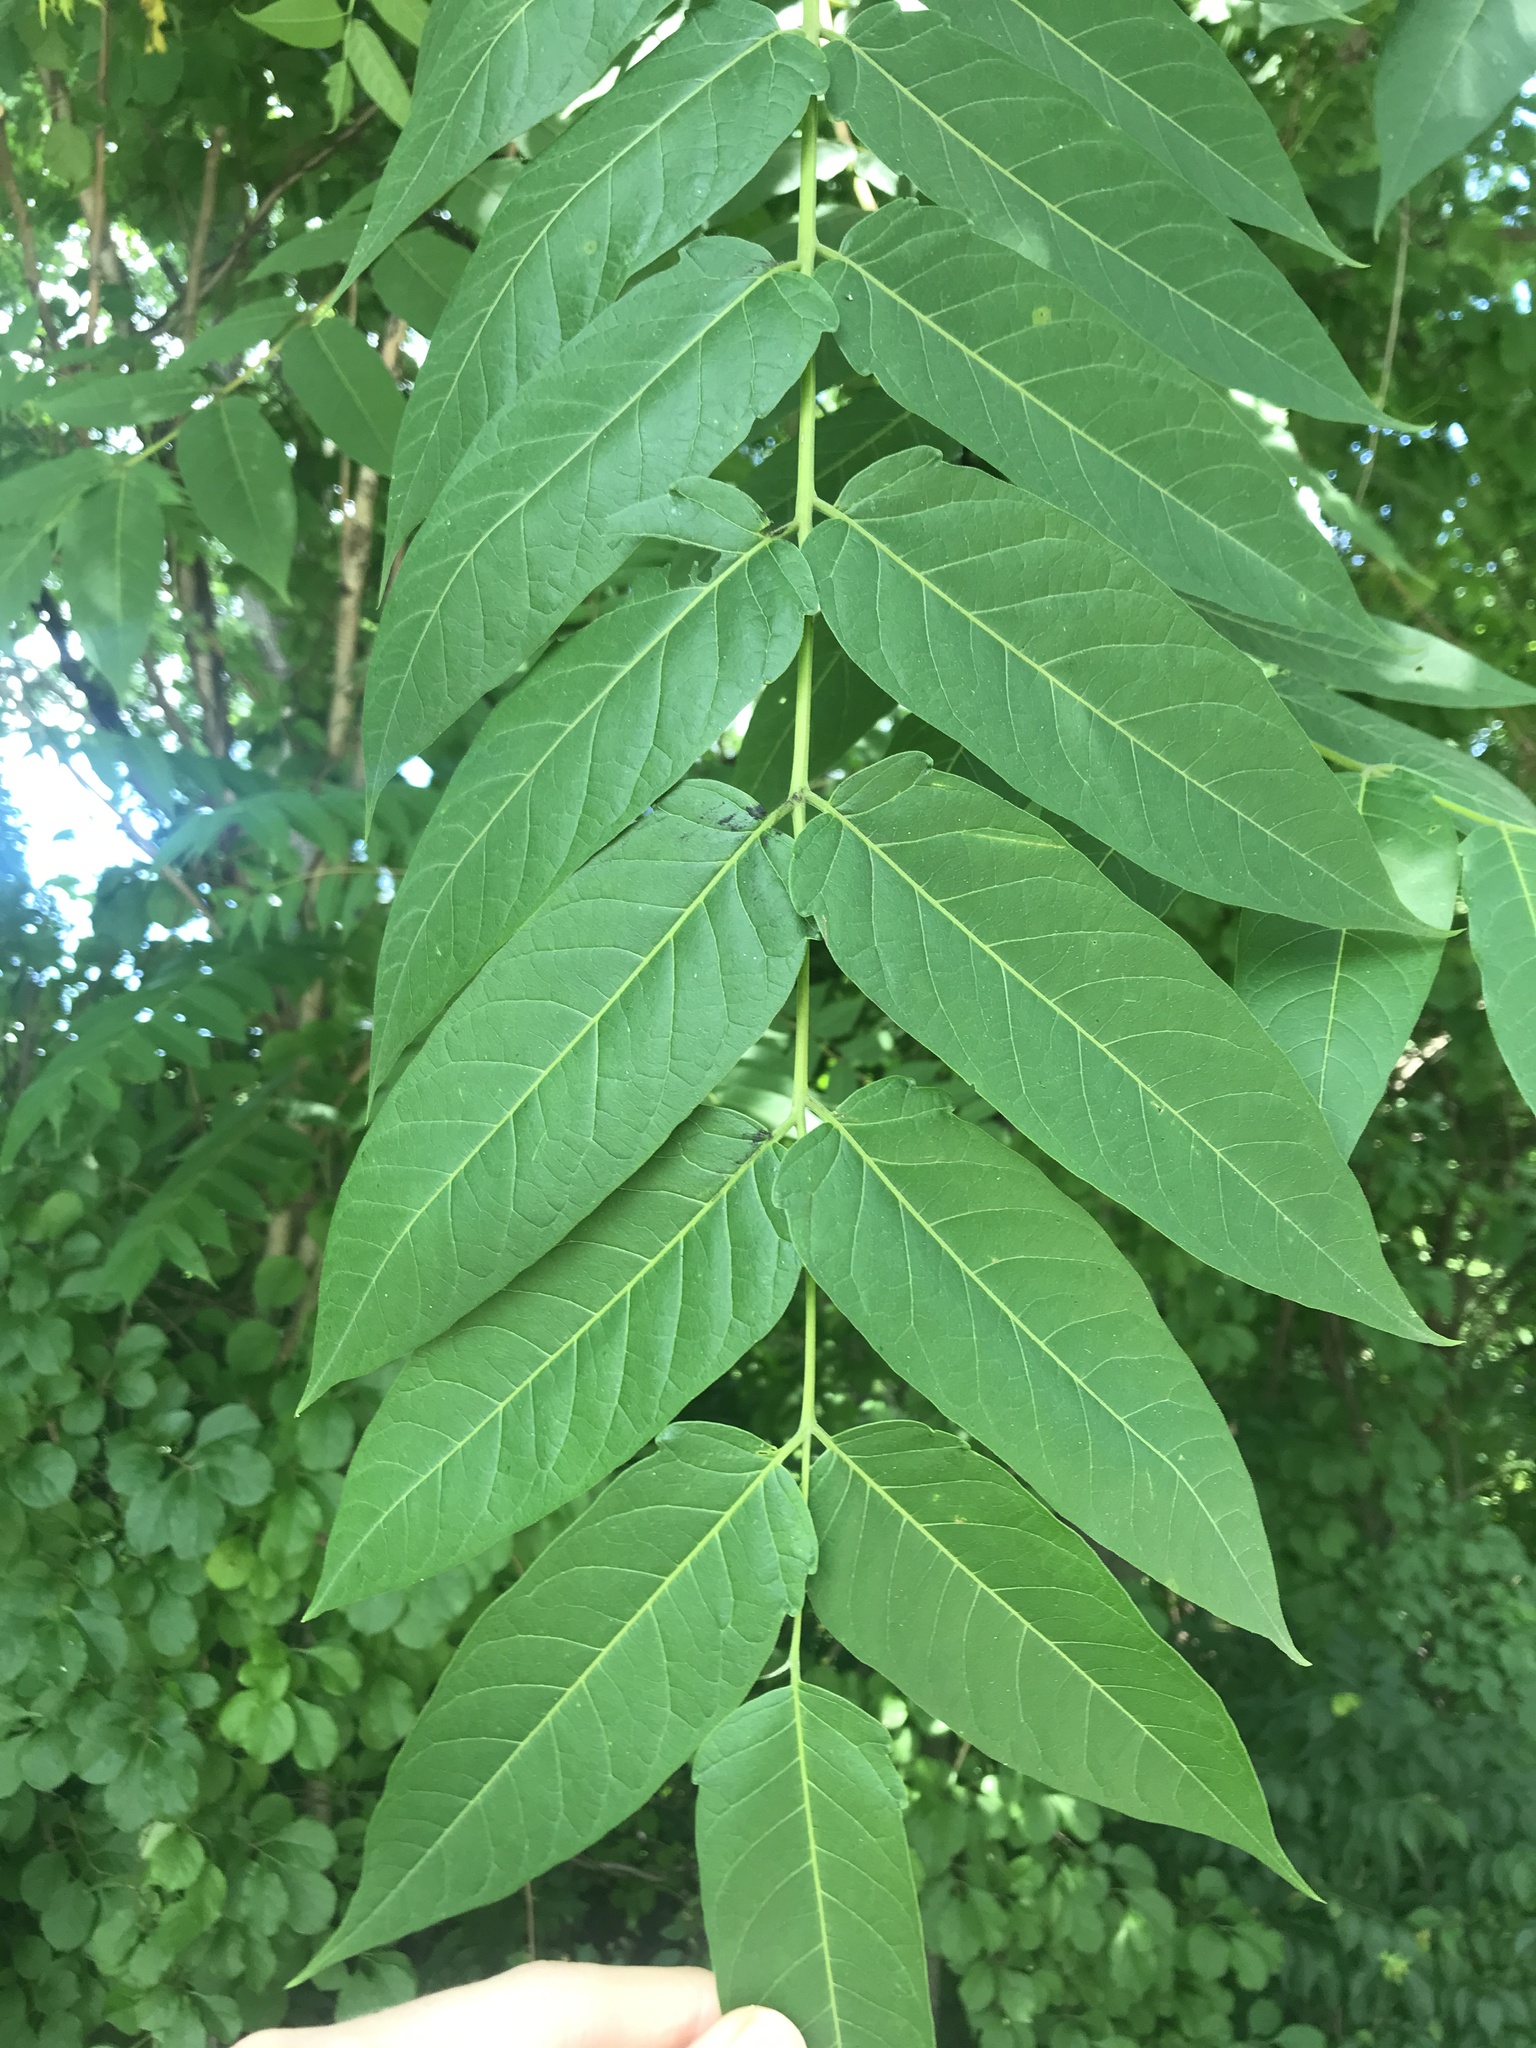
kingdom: Plantae
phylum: Tracheophyta
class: Magnoliopsida
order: Sapindales
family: Simaroubaceae
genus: Ailanthus
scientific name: Ailanthus altissima
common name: Tree-of-heaven
